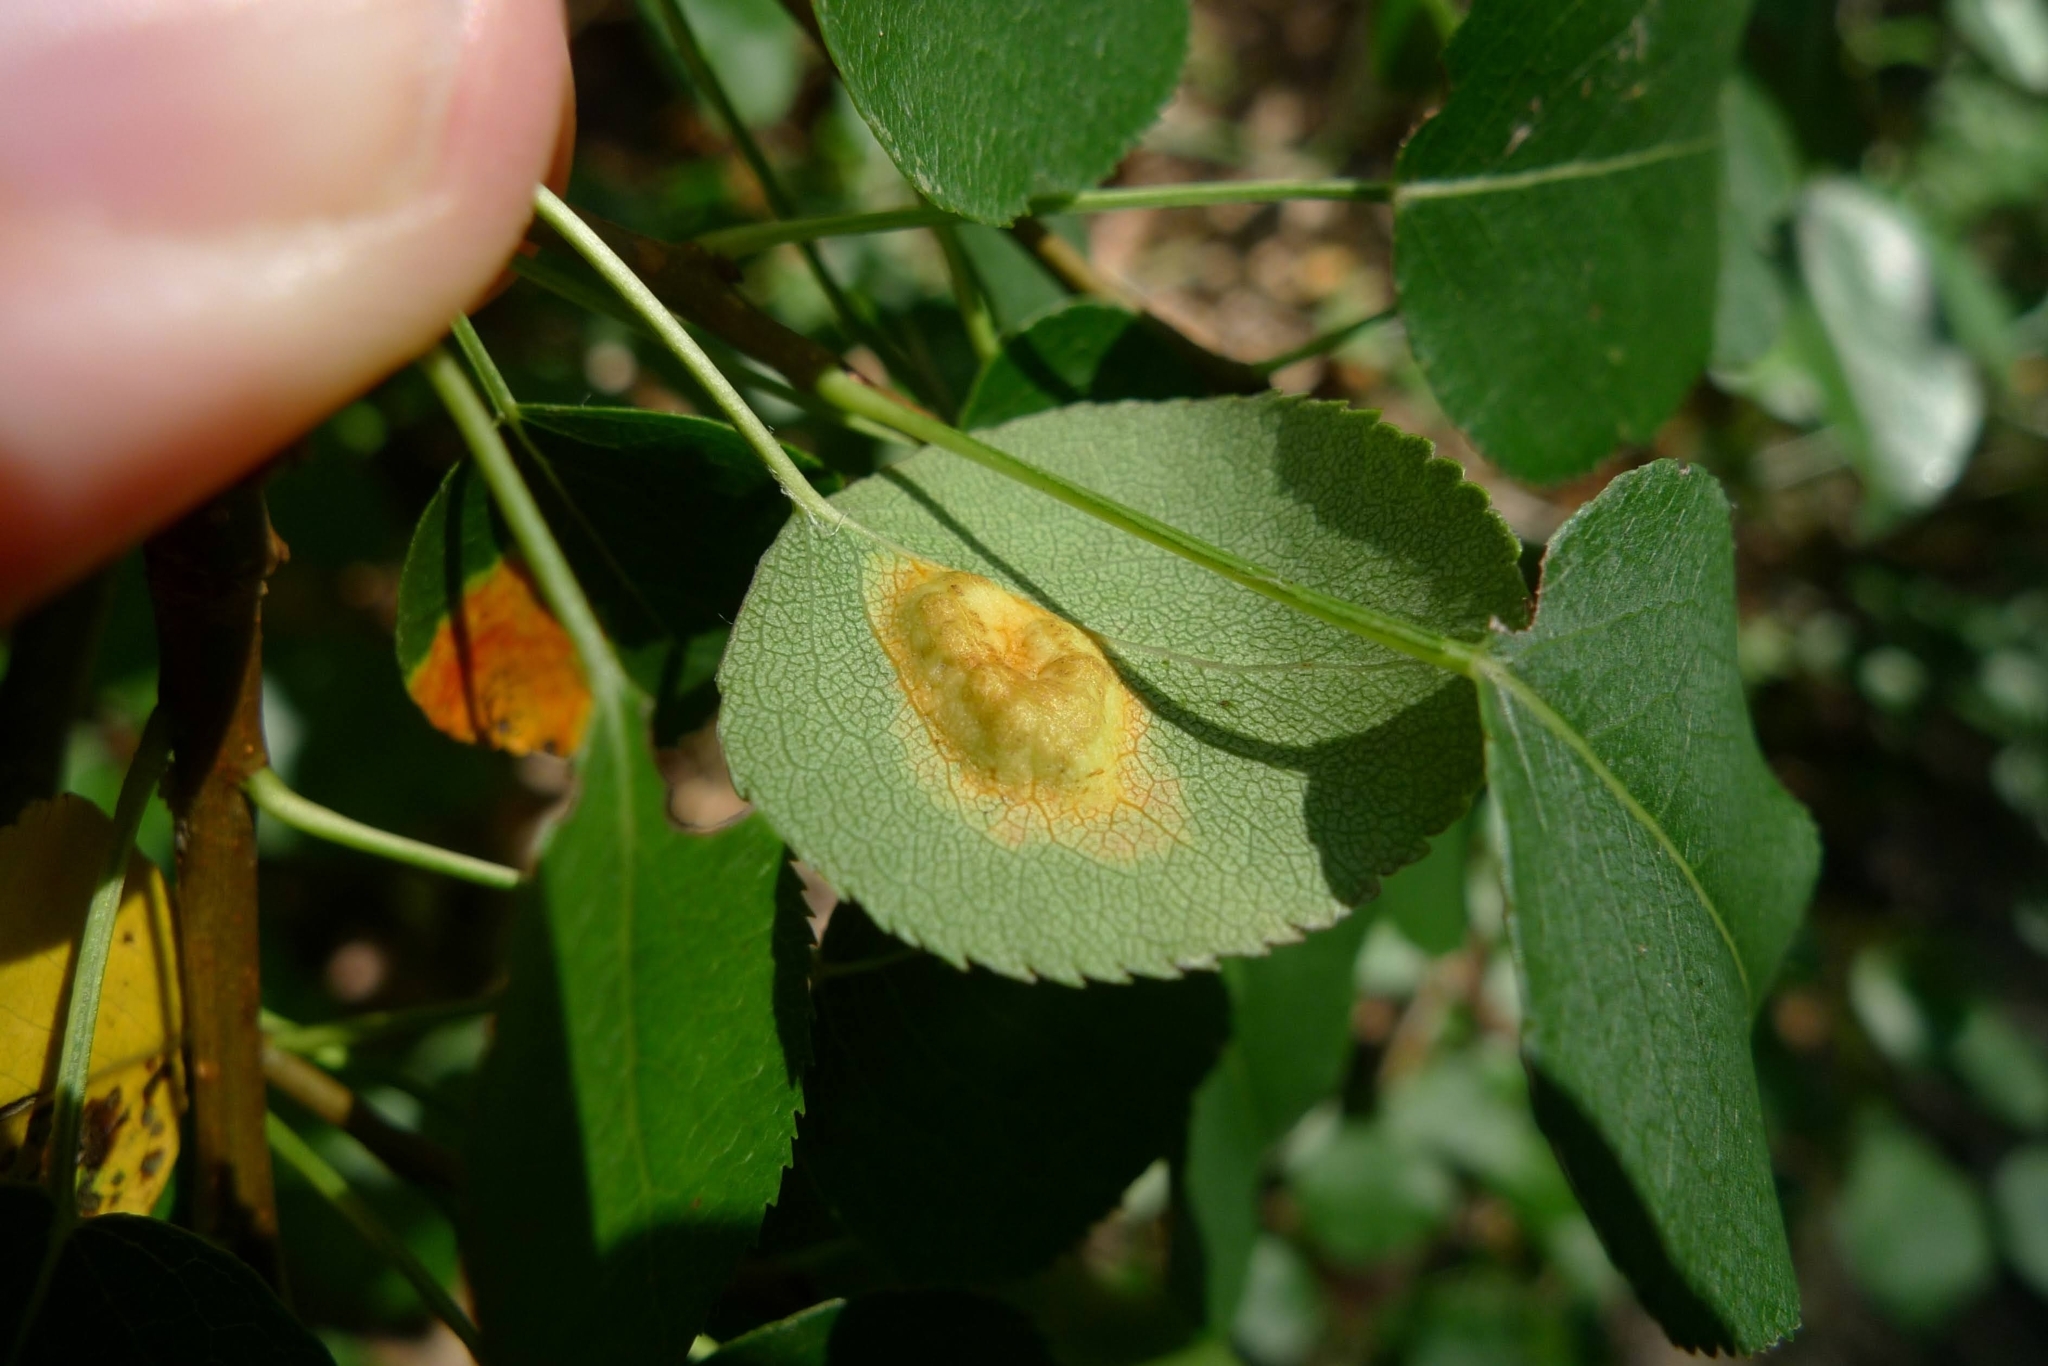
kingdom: Fungi
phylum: Basidiomycota
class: Pucciniomycetes
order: Pucciniales
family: Gymnosporangiaceae
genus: Gymnosporangium
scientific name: Gymnosporangium sabinae
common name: Pear trellis rust fungus
